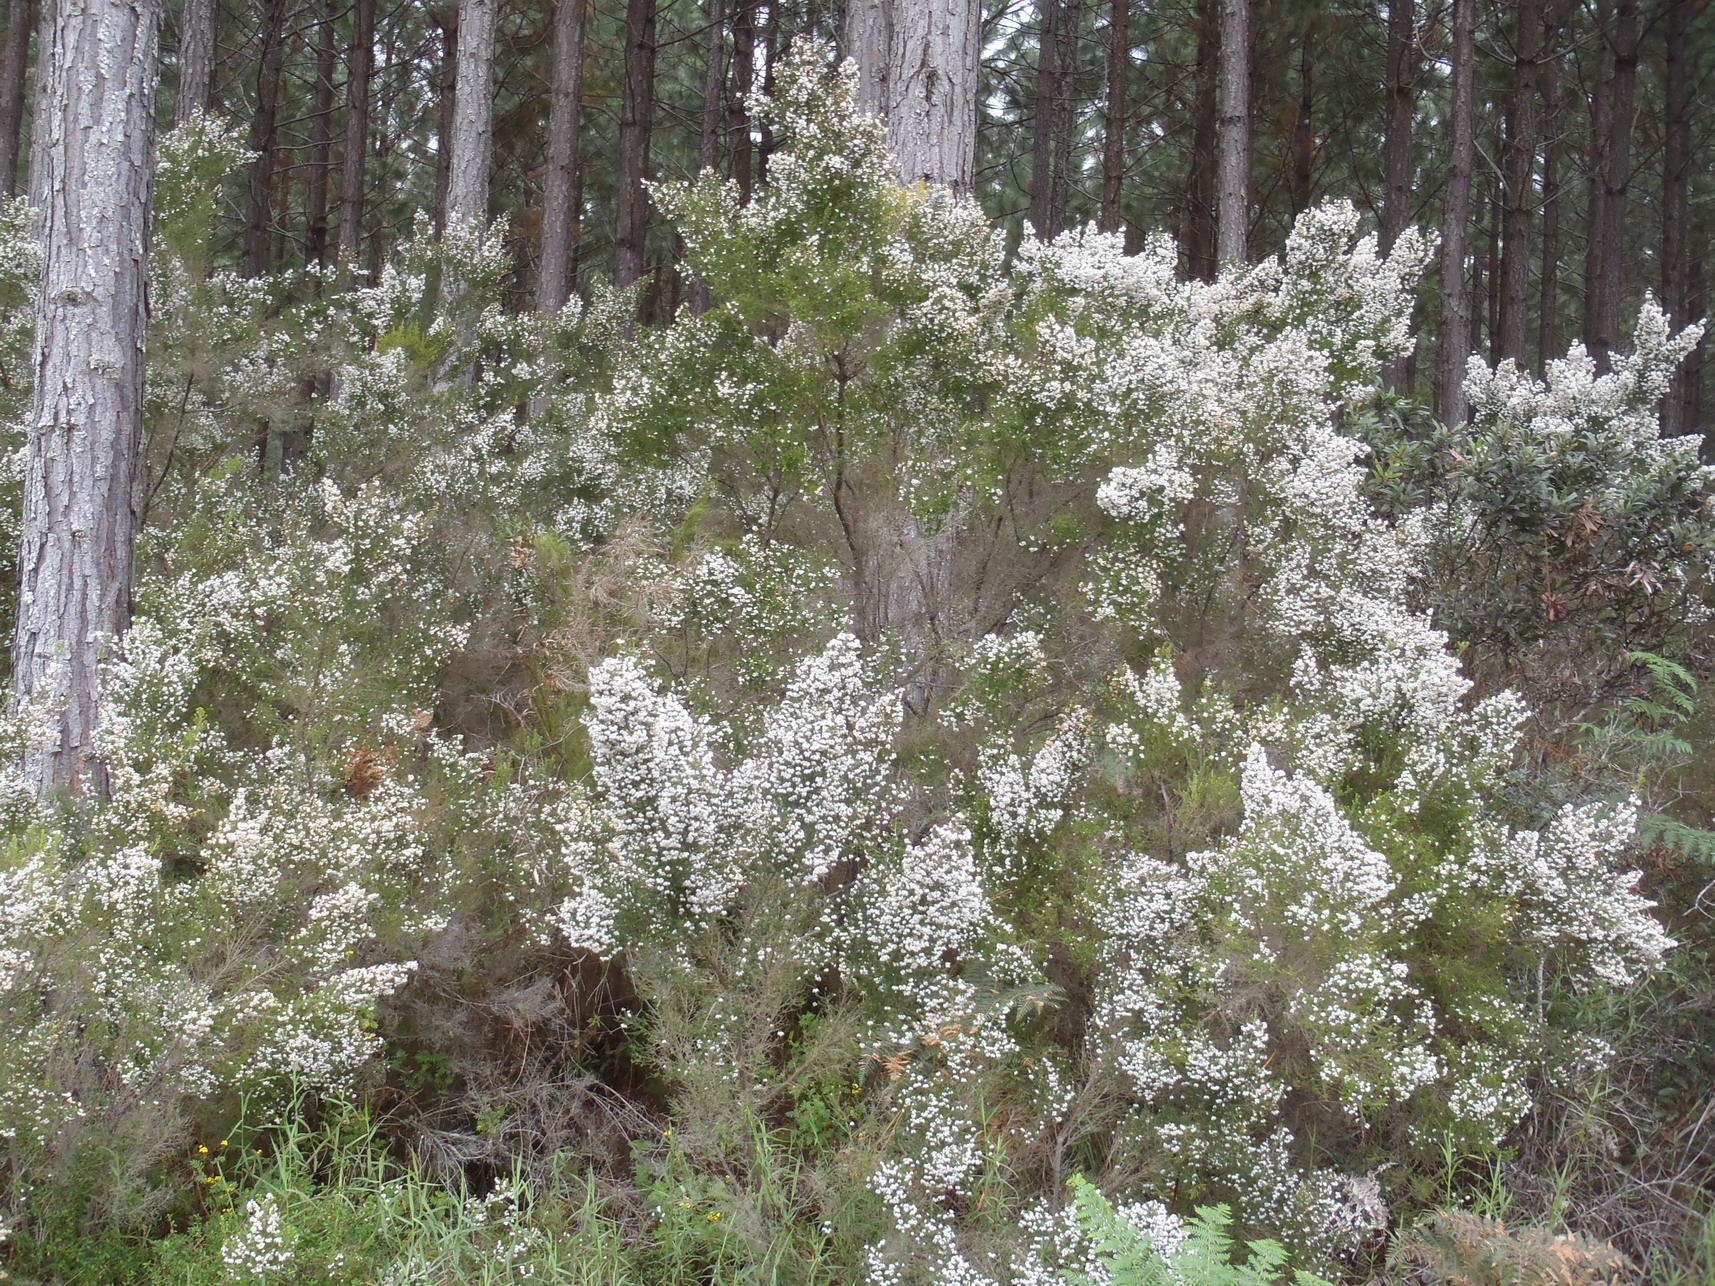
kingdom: Plantae
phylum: Tracheophyta
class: Magnoliopsida
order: Ericales
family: Ericaceae
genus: Erica
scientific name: Erica scabriuscula
